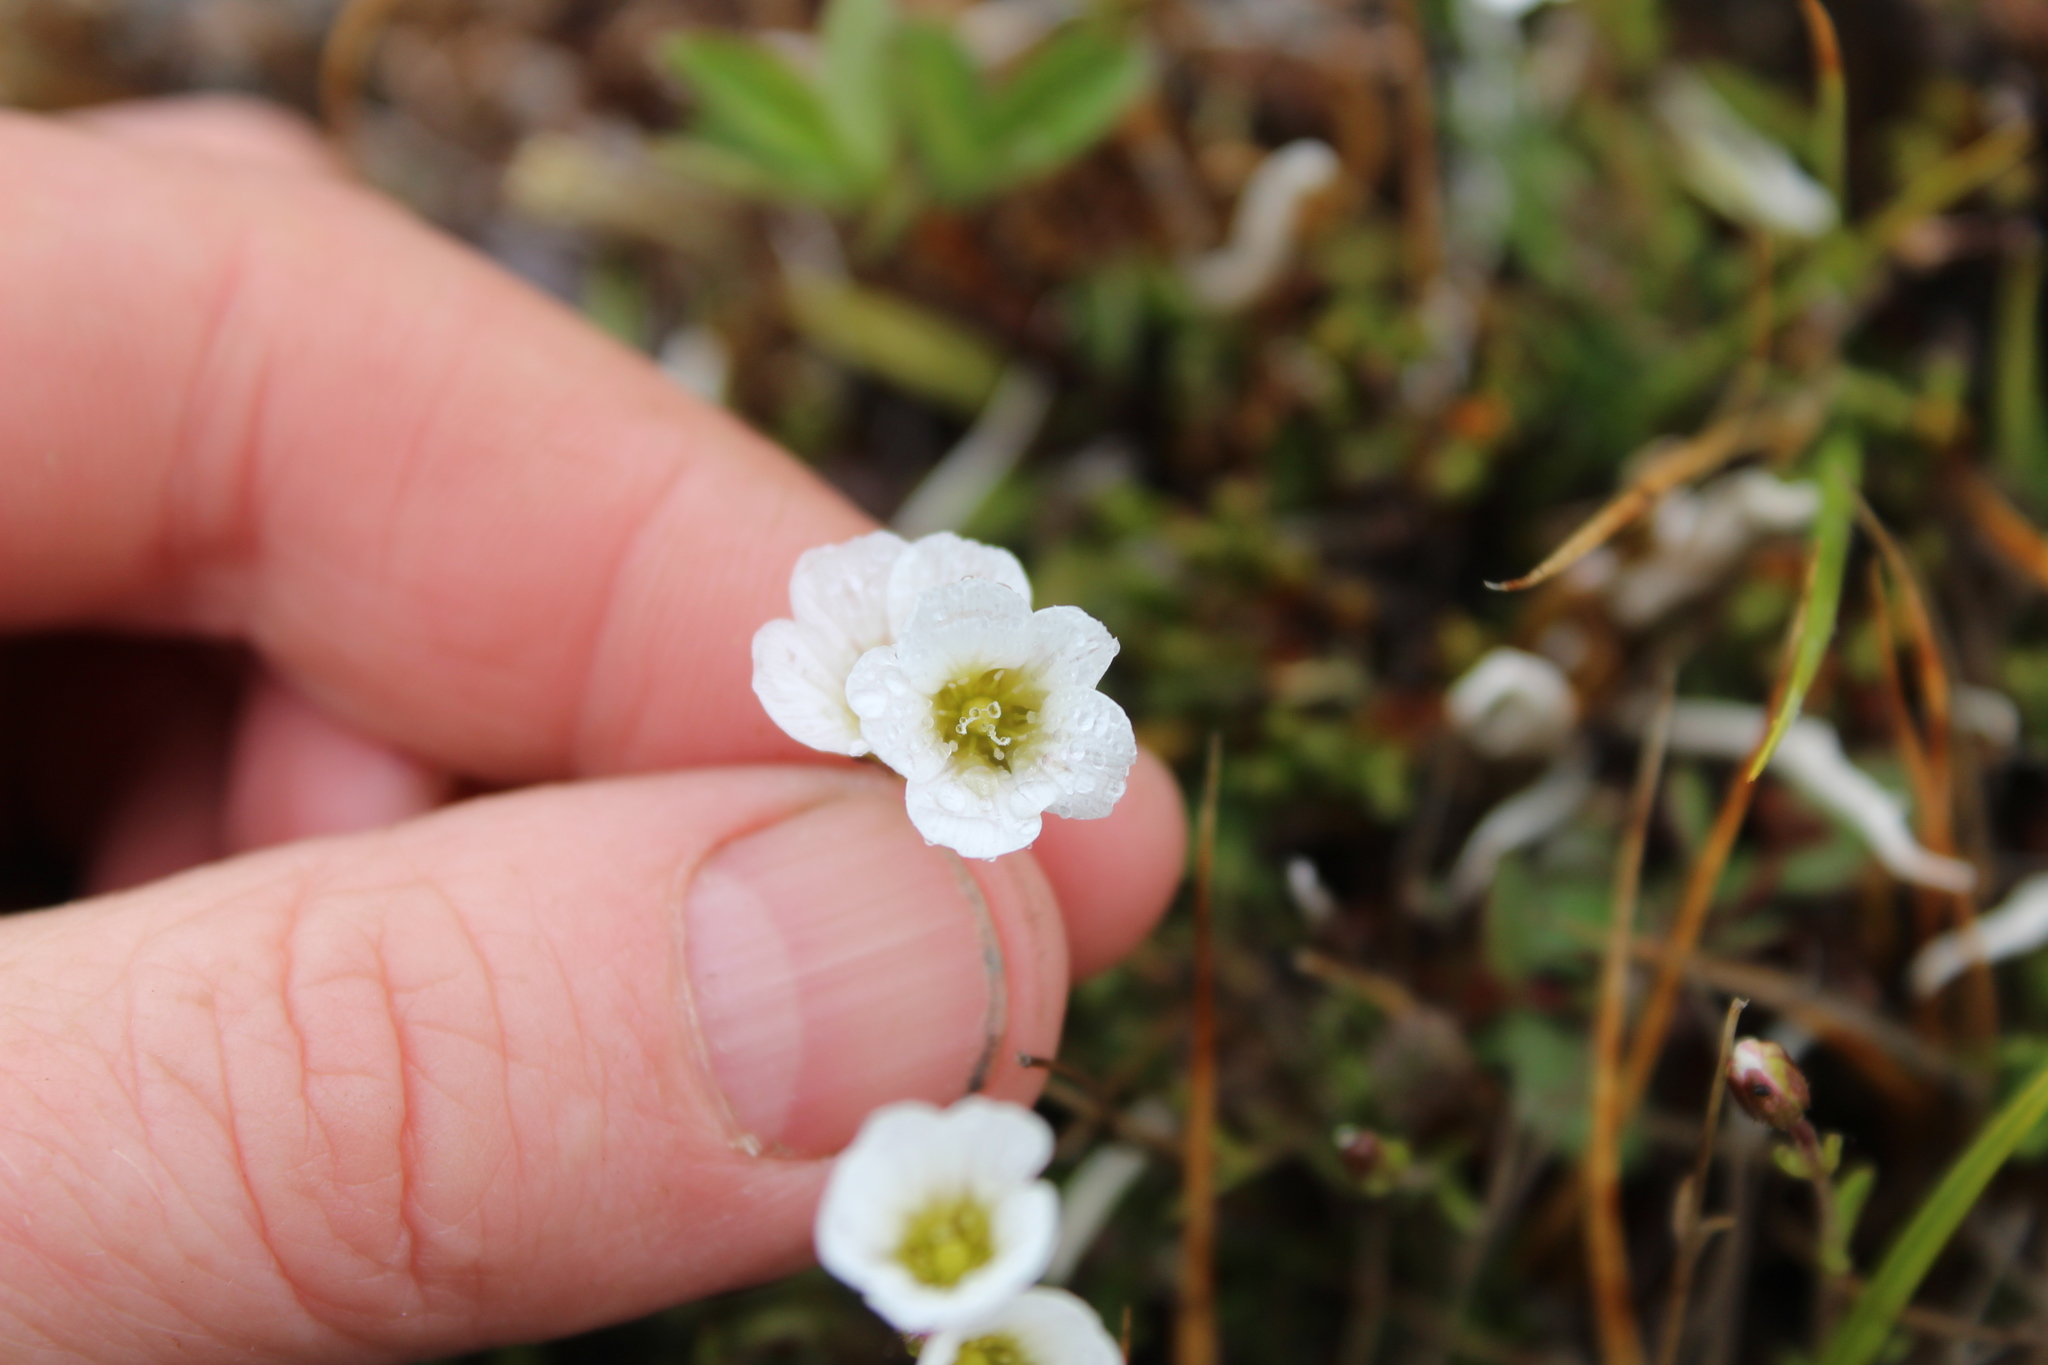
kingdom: Plantae
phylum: Tracheophyta
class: Magnoliopsida
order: Caryophyllales
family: Caryophyllaceae
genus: Cherleria
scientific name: Cherleria arctica
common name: Arctic sandwort
